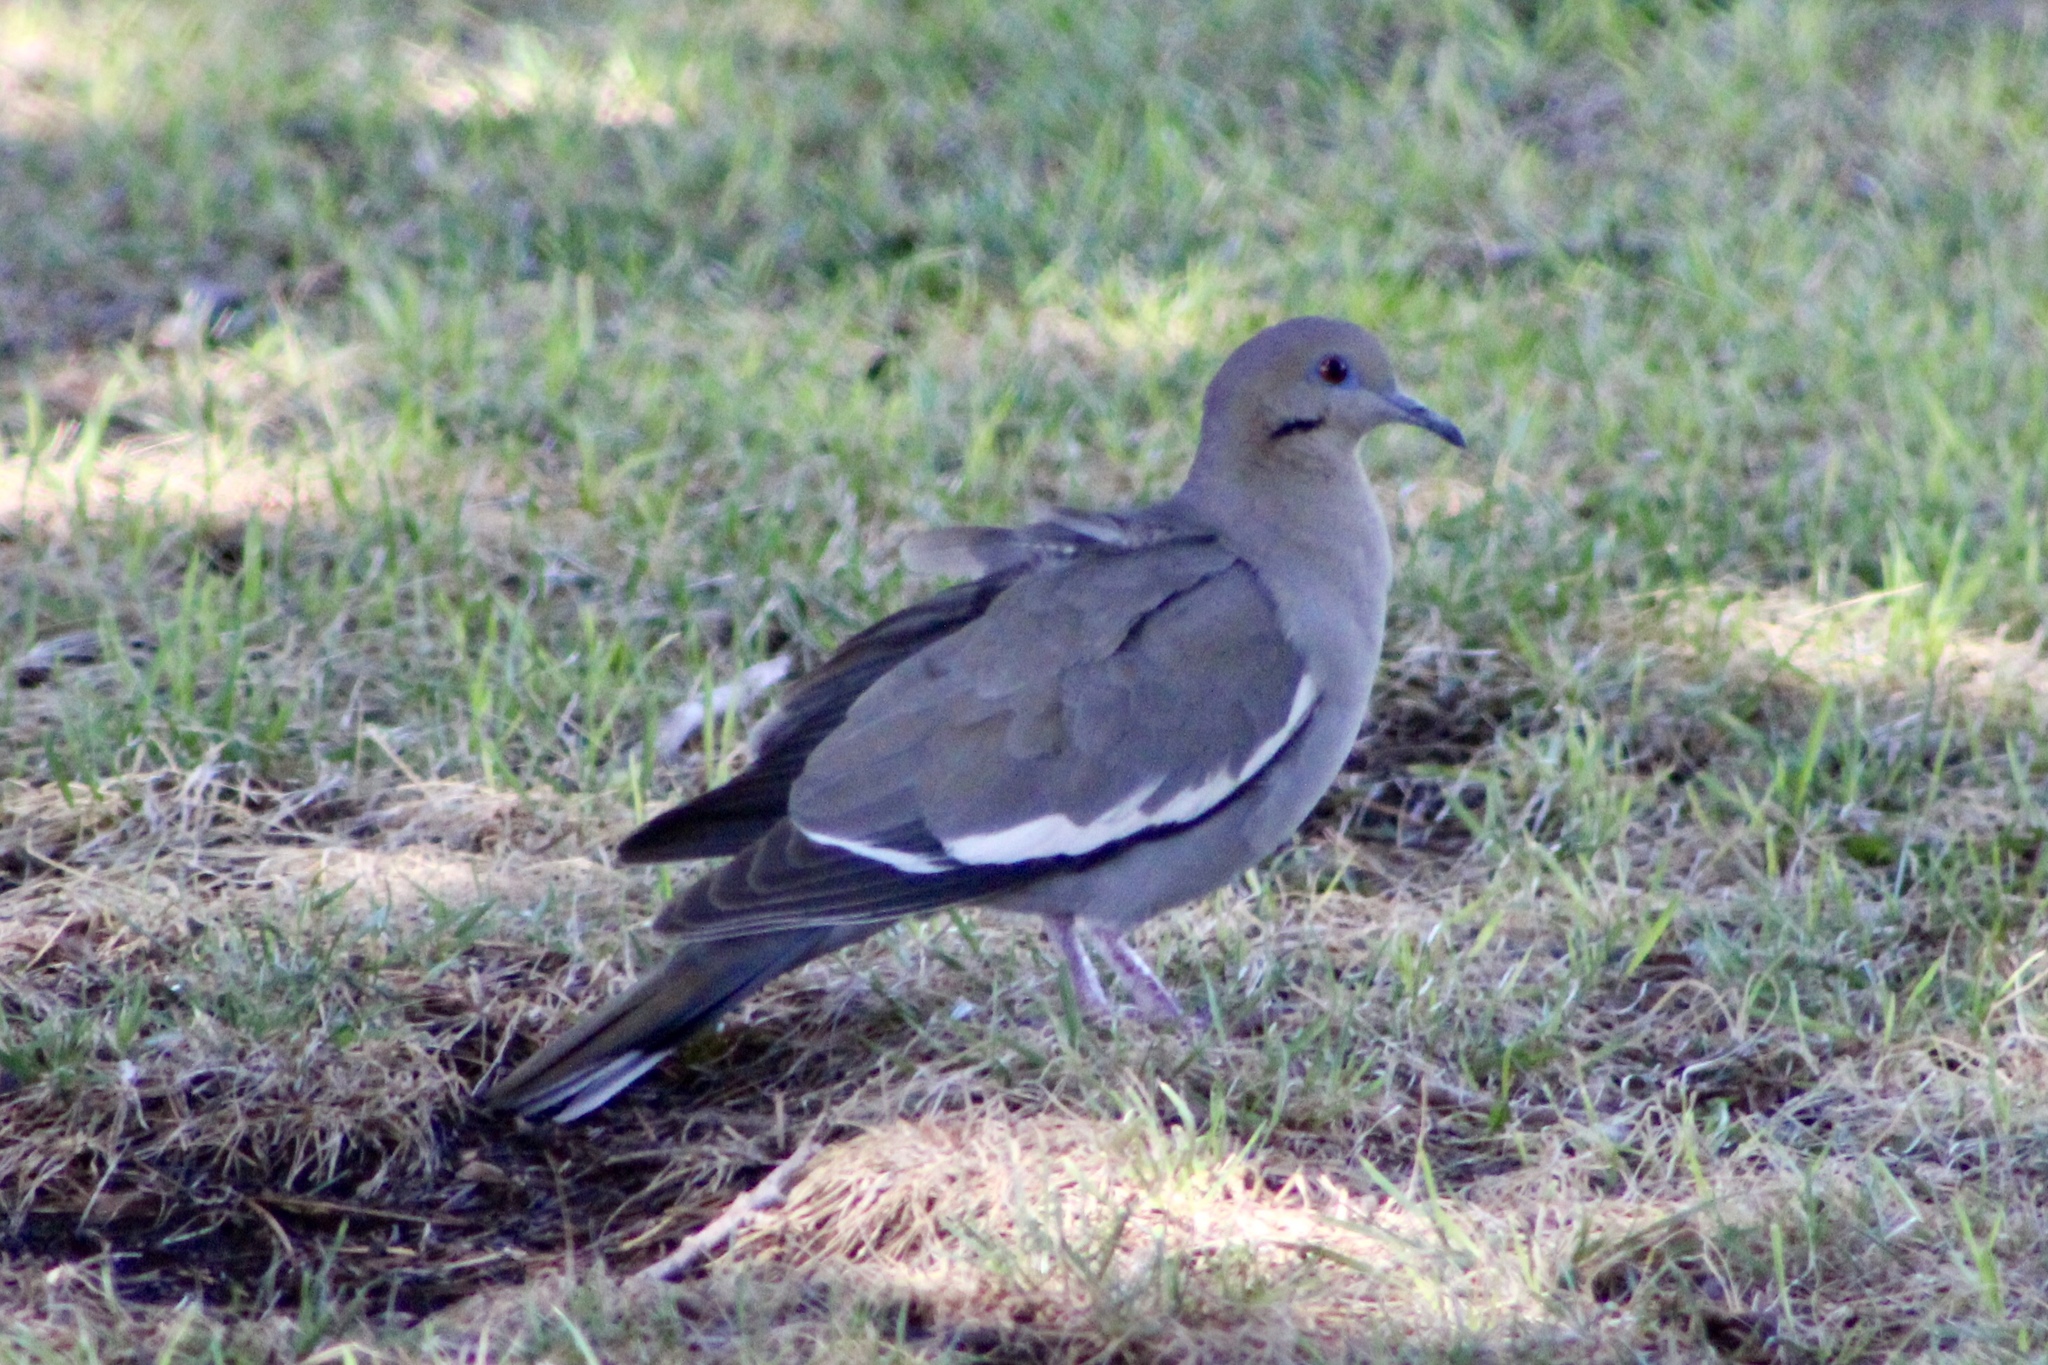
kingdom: Animalia
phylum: Chordata
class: Aves
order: Columbiformes
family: Columbidae
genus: Zenaida
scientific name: Zenaida asiatica
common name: White-winged dove
